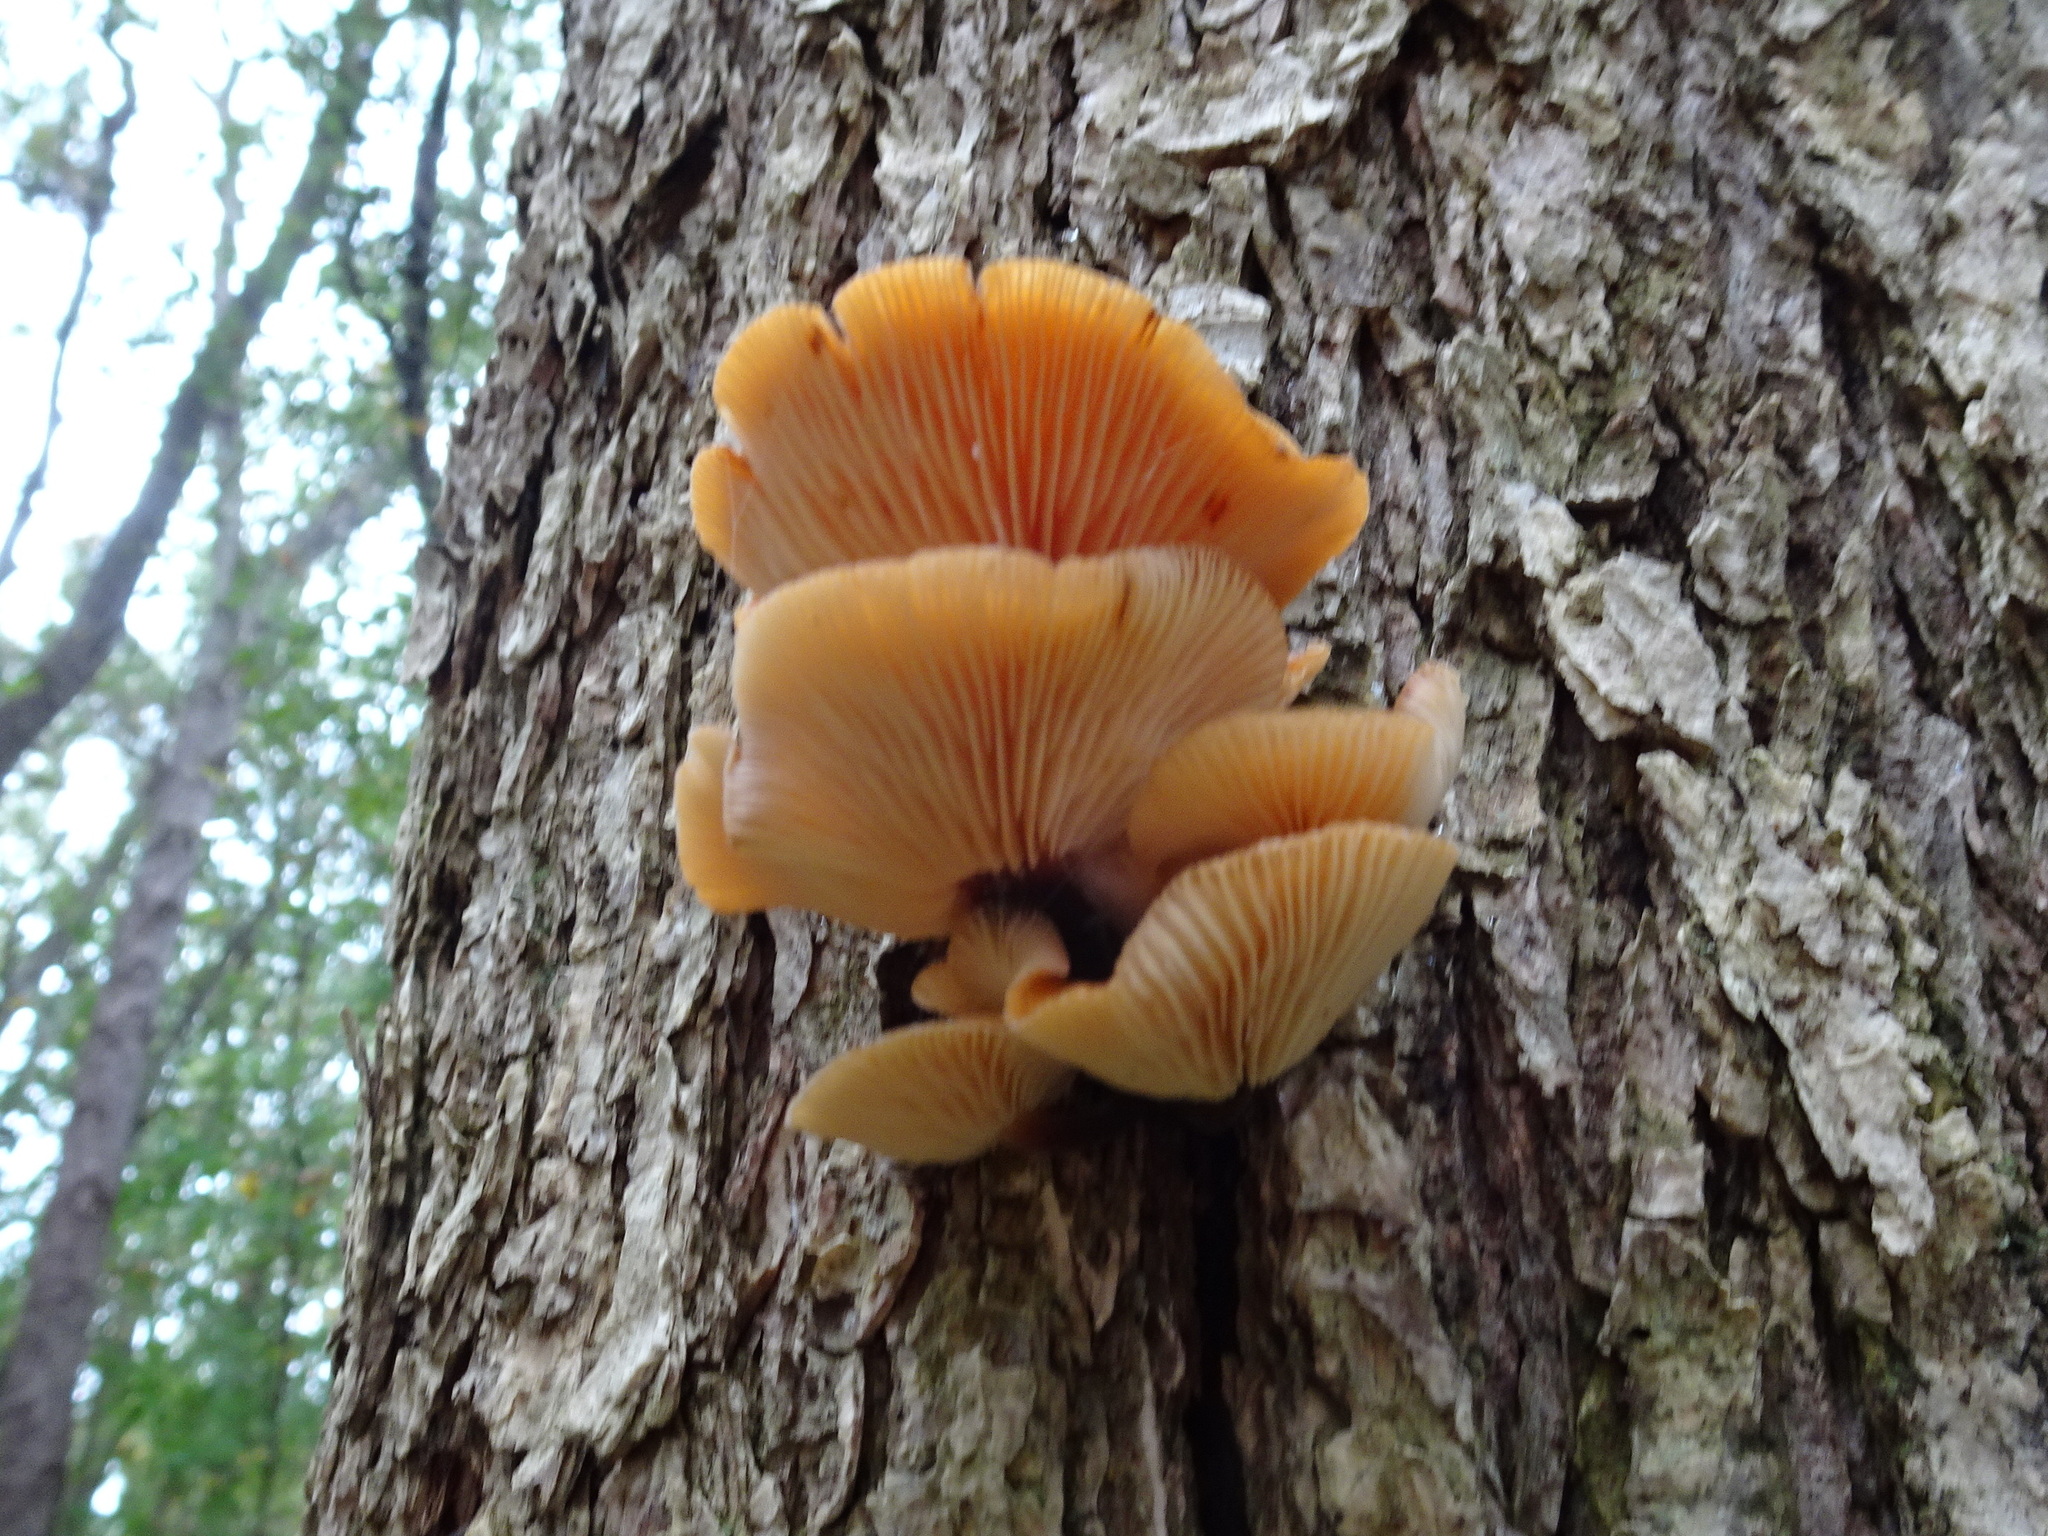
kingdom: Fungi
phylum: Basidiomycota
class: Agaricomycetes
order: Agaricales
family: Physalacriaceae
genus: Flammulina
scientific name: Flammulina velutipes
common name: Velvet shank
